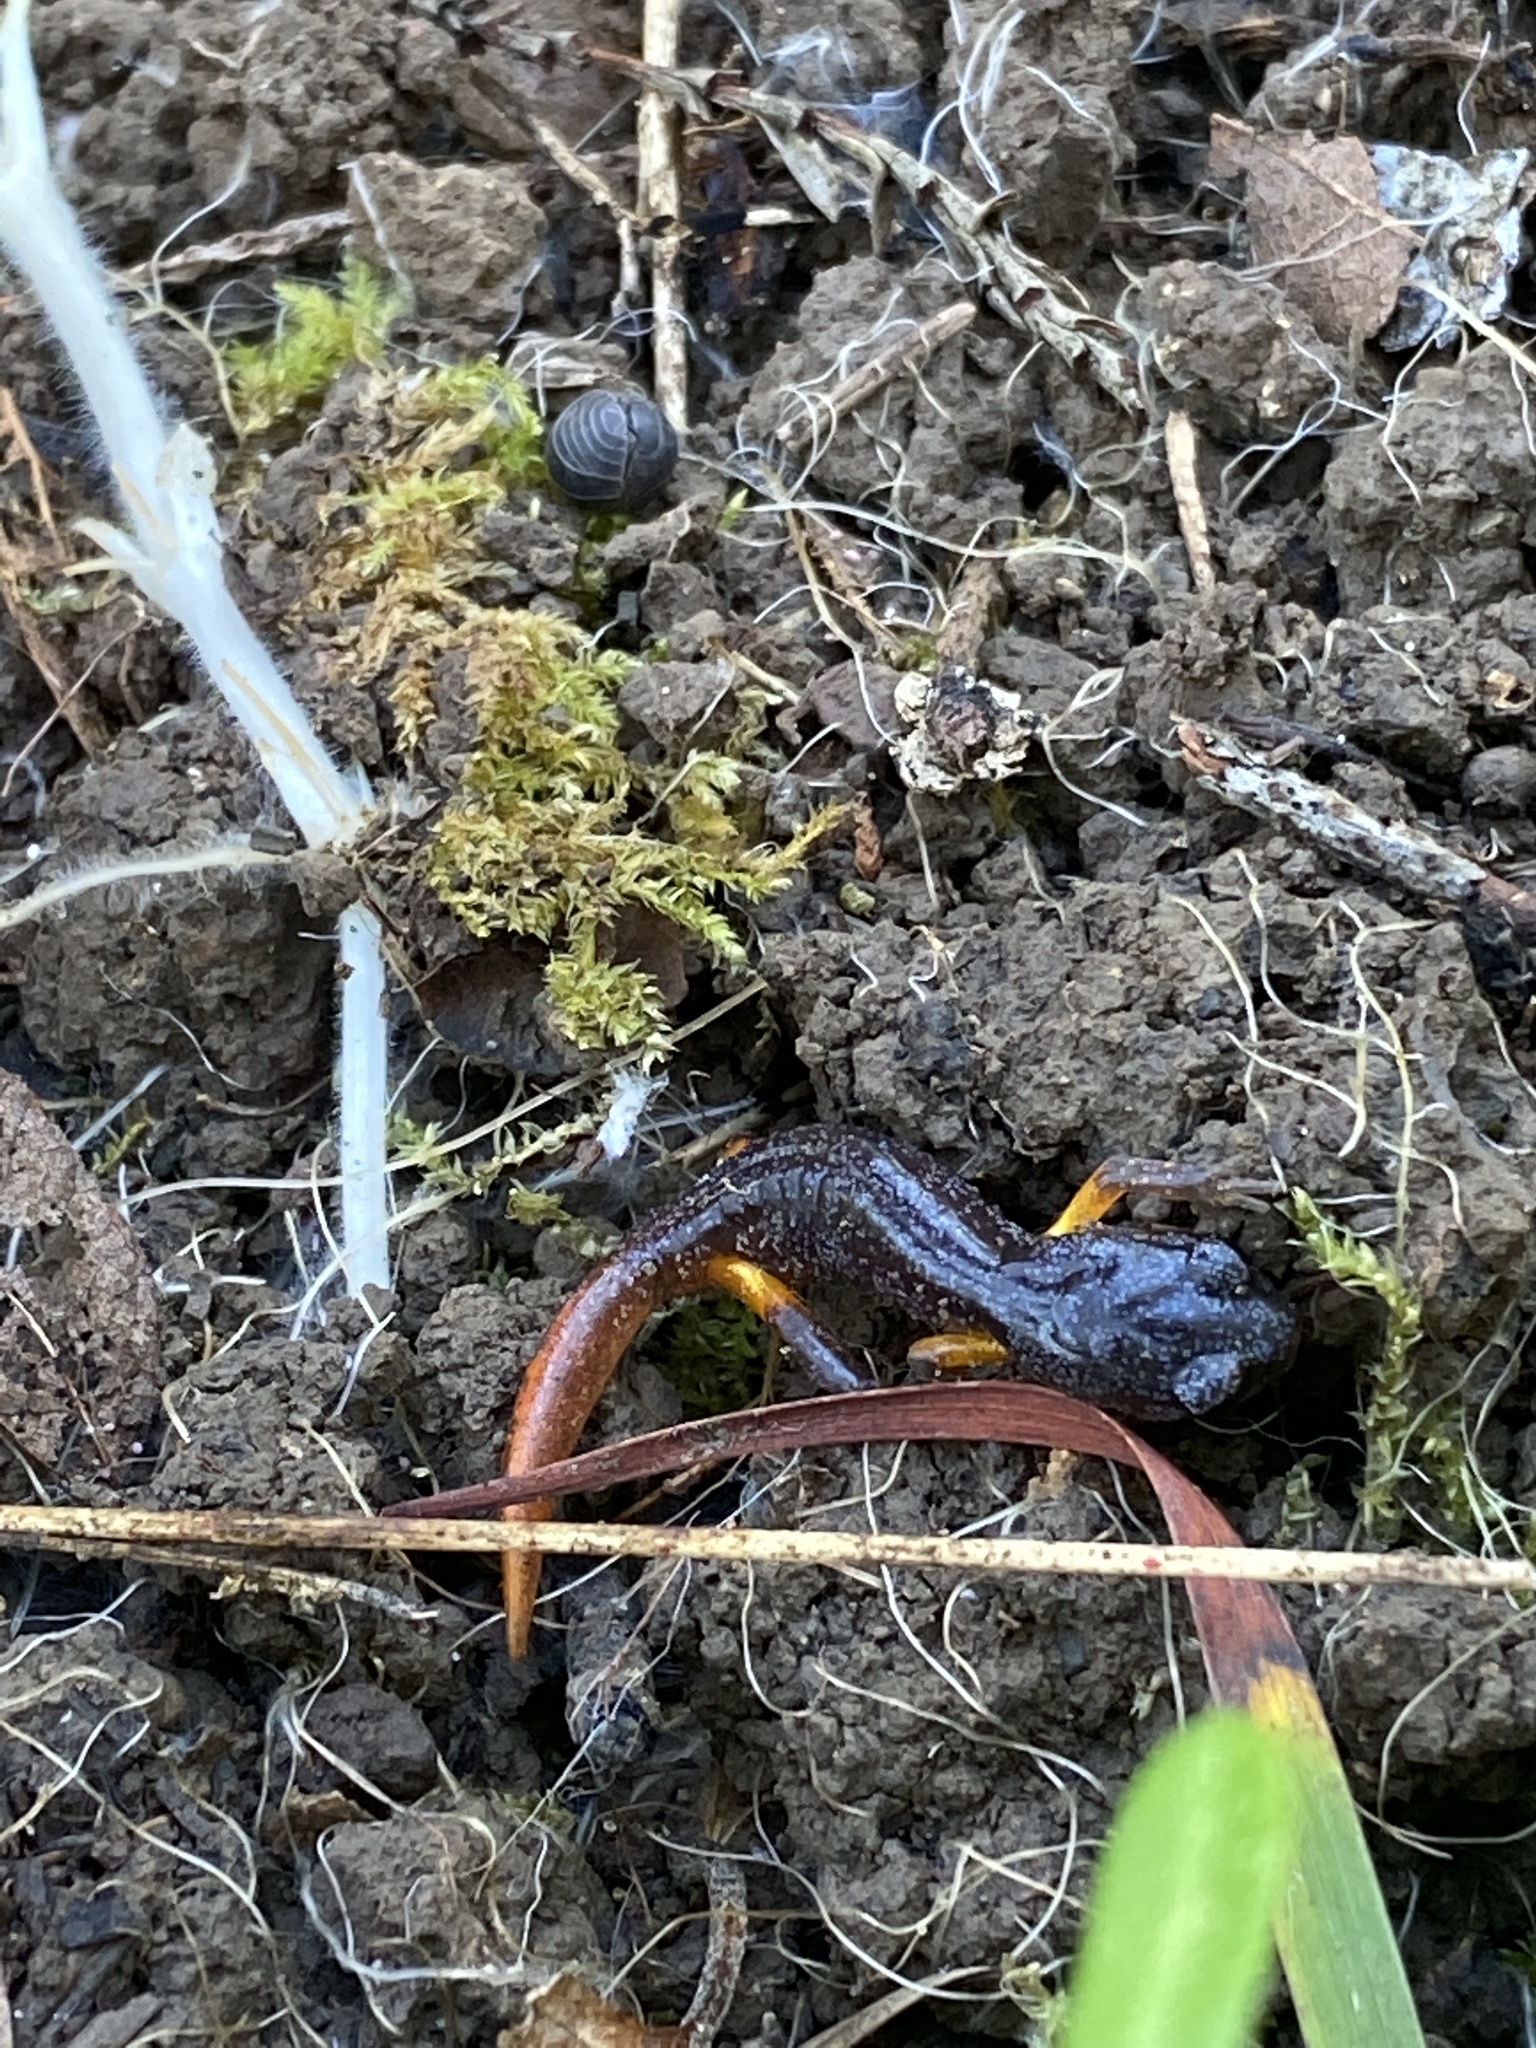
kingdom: Animalia
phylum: Chordata
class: Amphibia
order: Caudata
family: Plethodontidae
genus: Ensatina
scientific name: Ensatina eschscholtzii
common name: Ensatina
